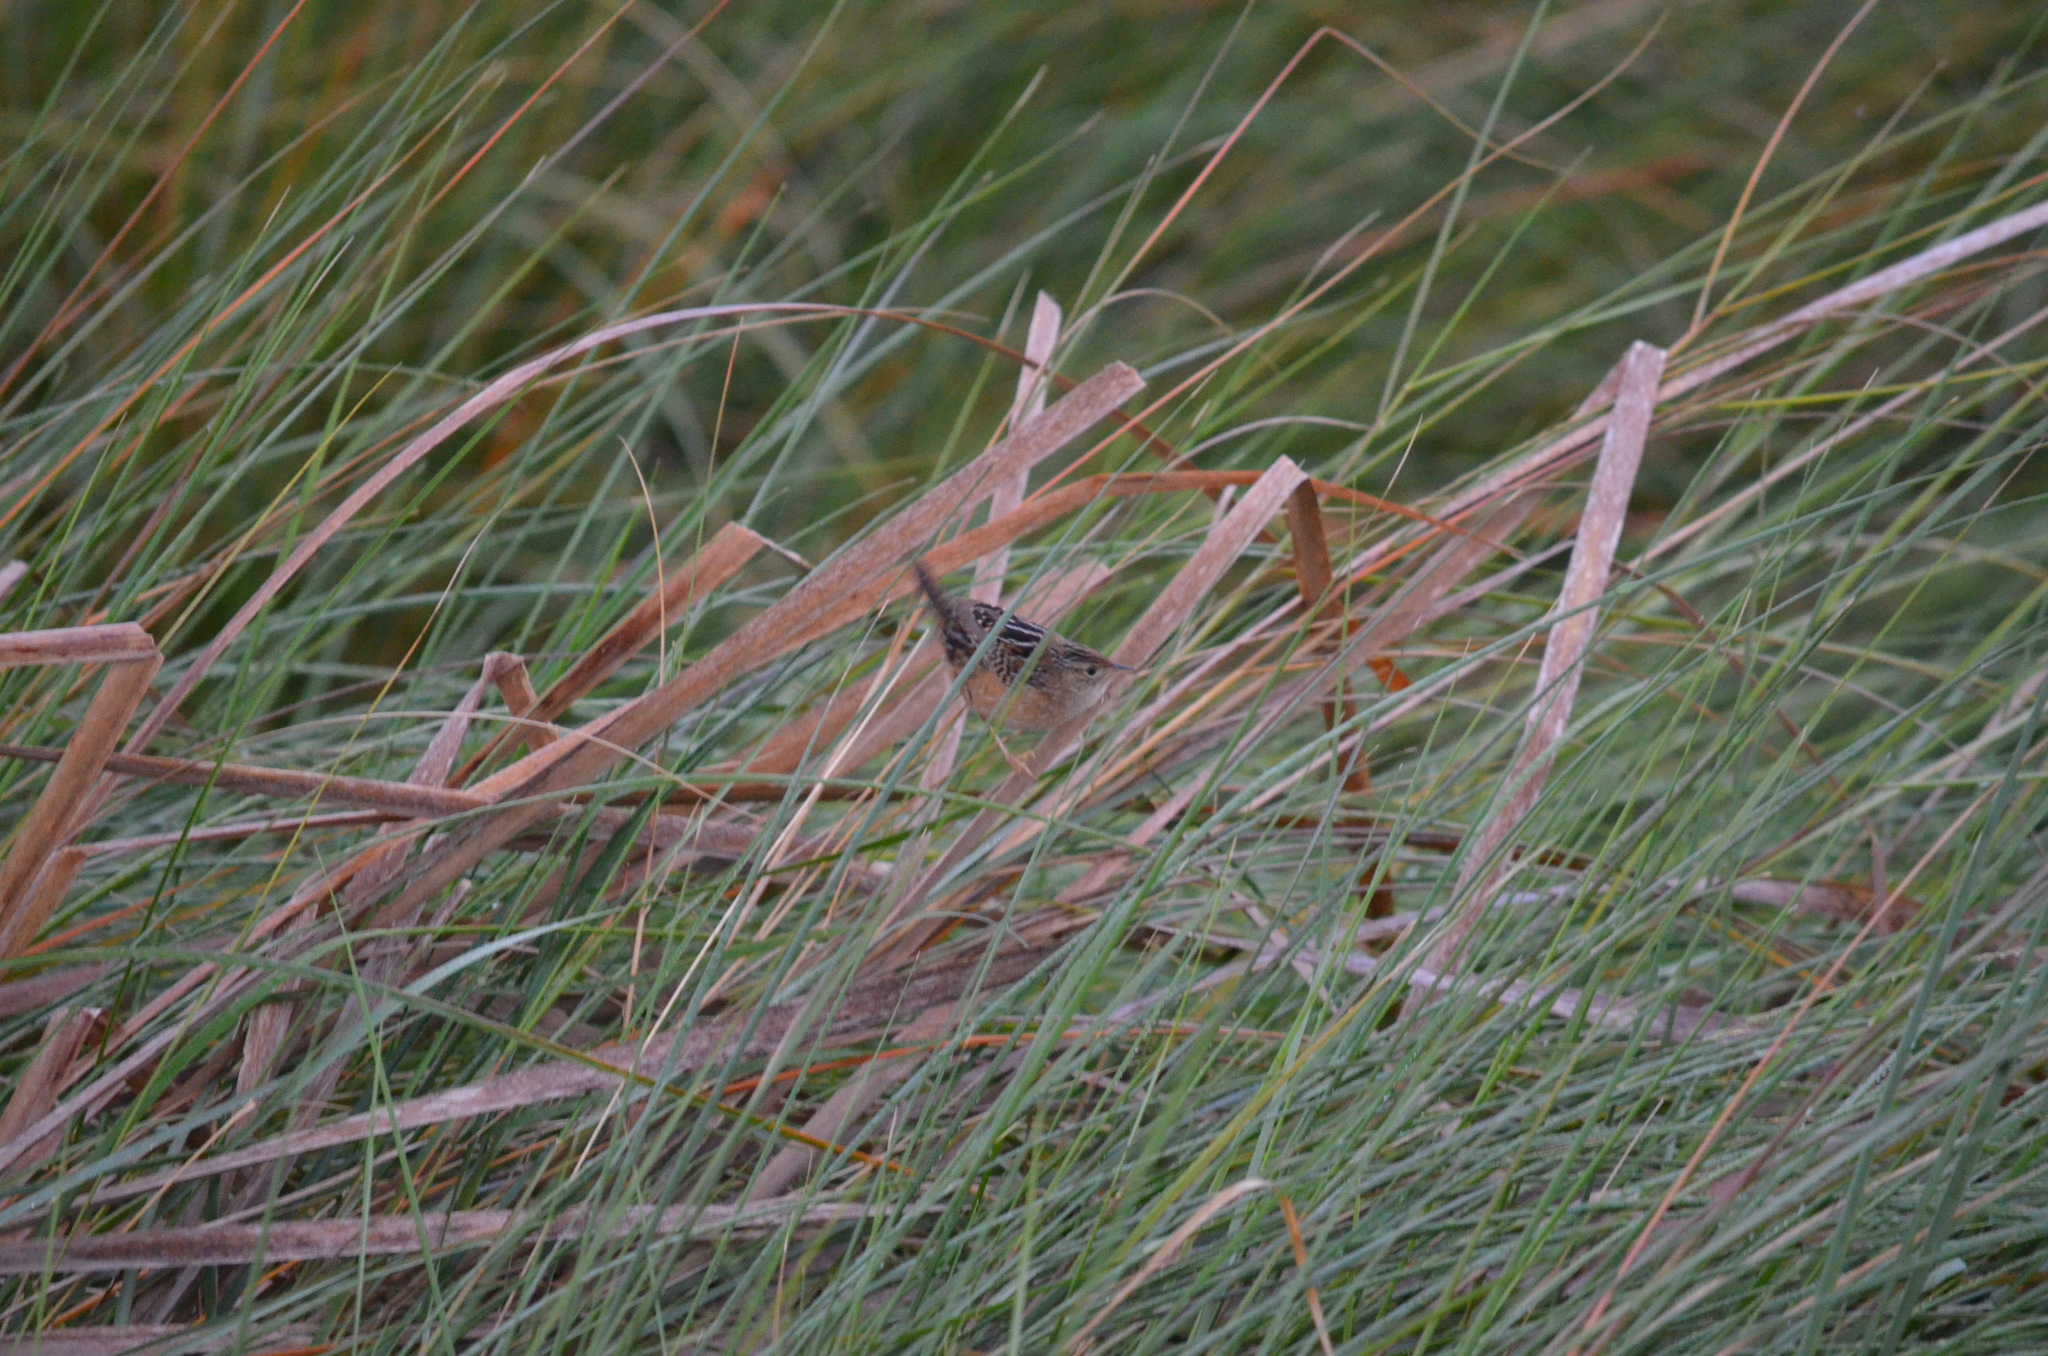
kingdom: Animalia
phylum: Chordata
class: Aves
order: Passeriformes
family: Troglodytidae
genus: Cistothorus
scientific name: Cistothorus platensis
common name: Sedge wren
